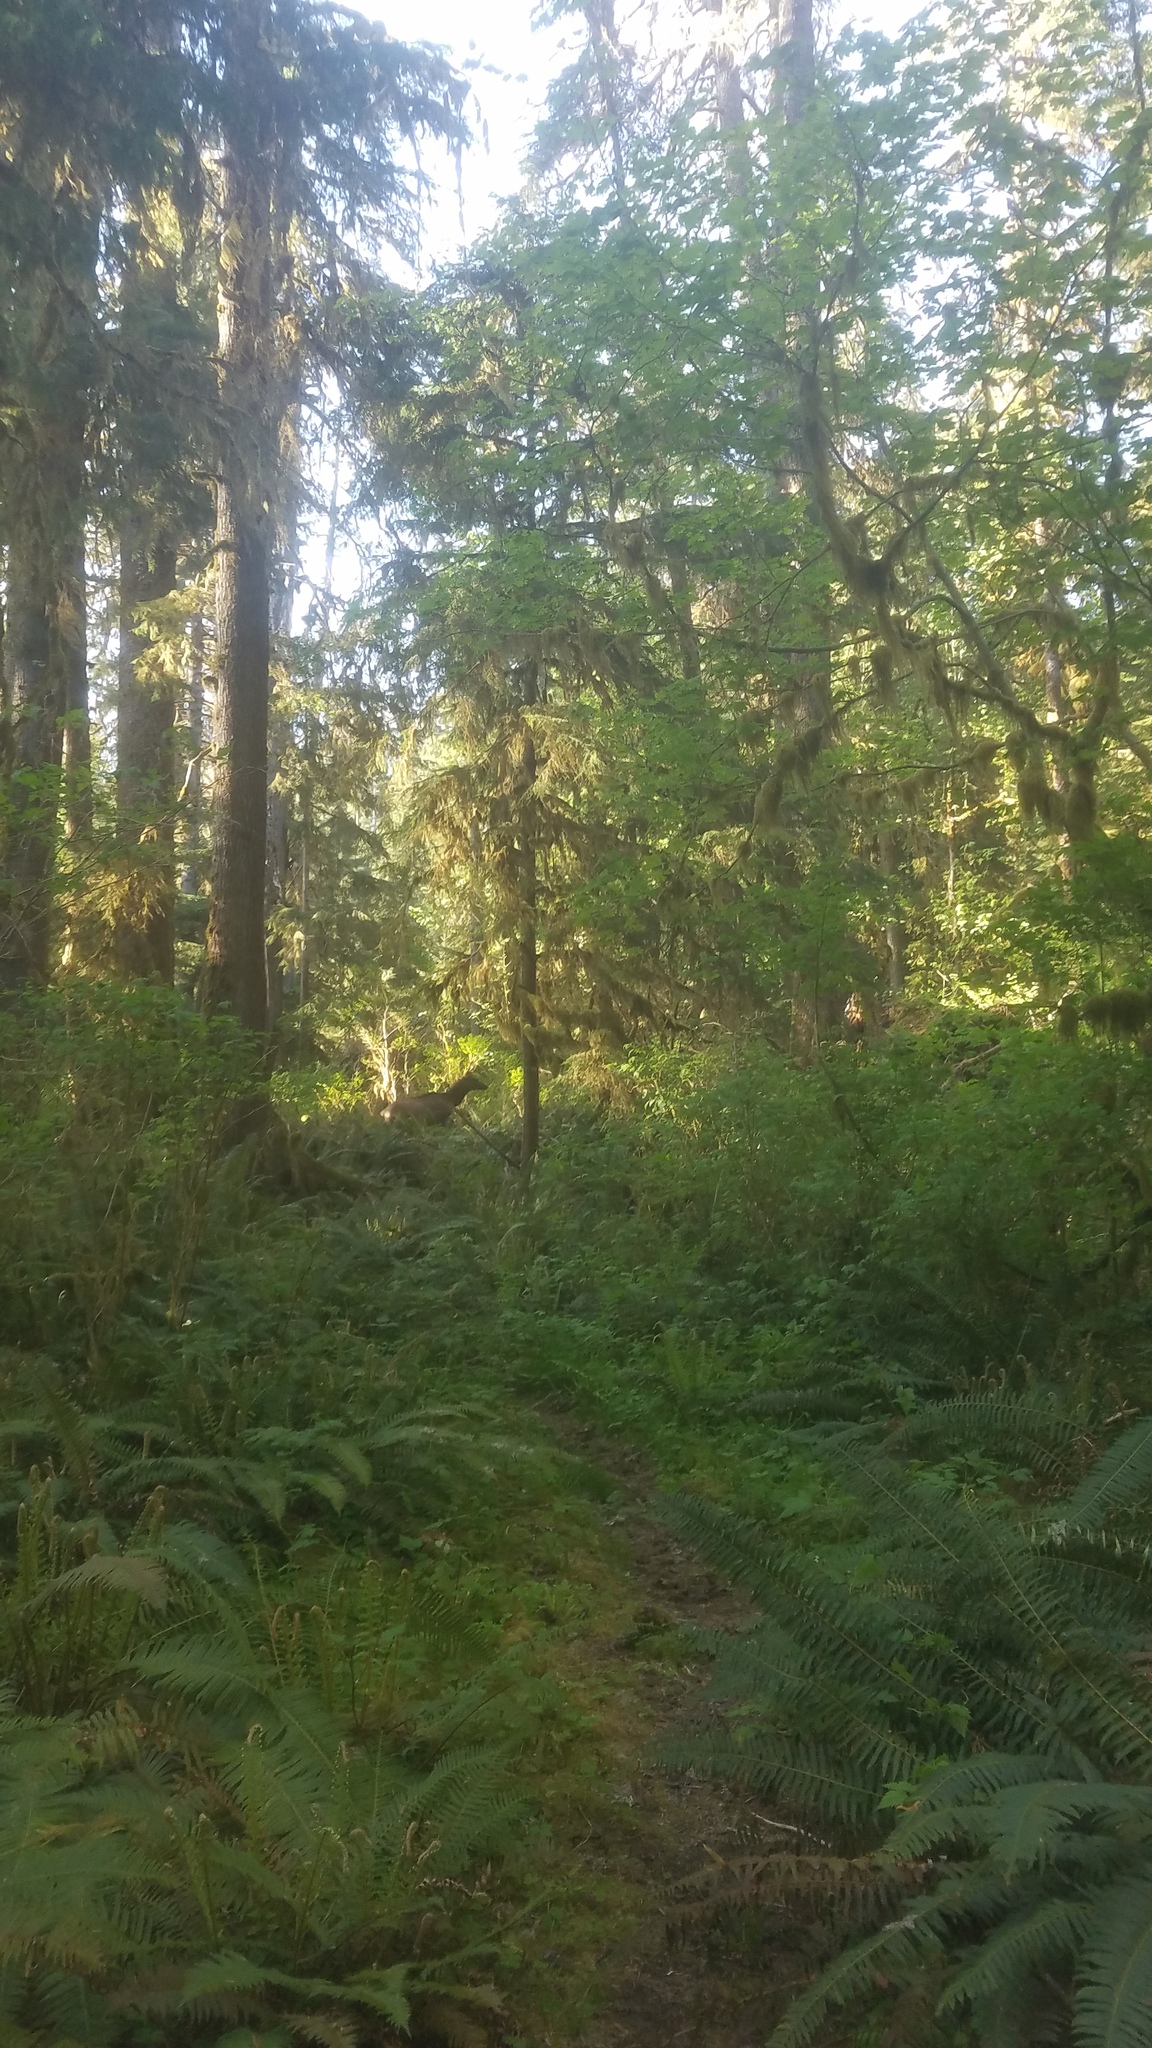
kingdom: Animalia
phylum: Chordata
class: Mammalia
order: Artiodactyla
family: Cervidae
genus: Cervus
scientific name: Cervus elaphus
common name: Red deer
